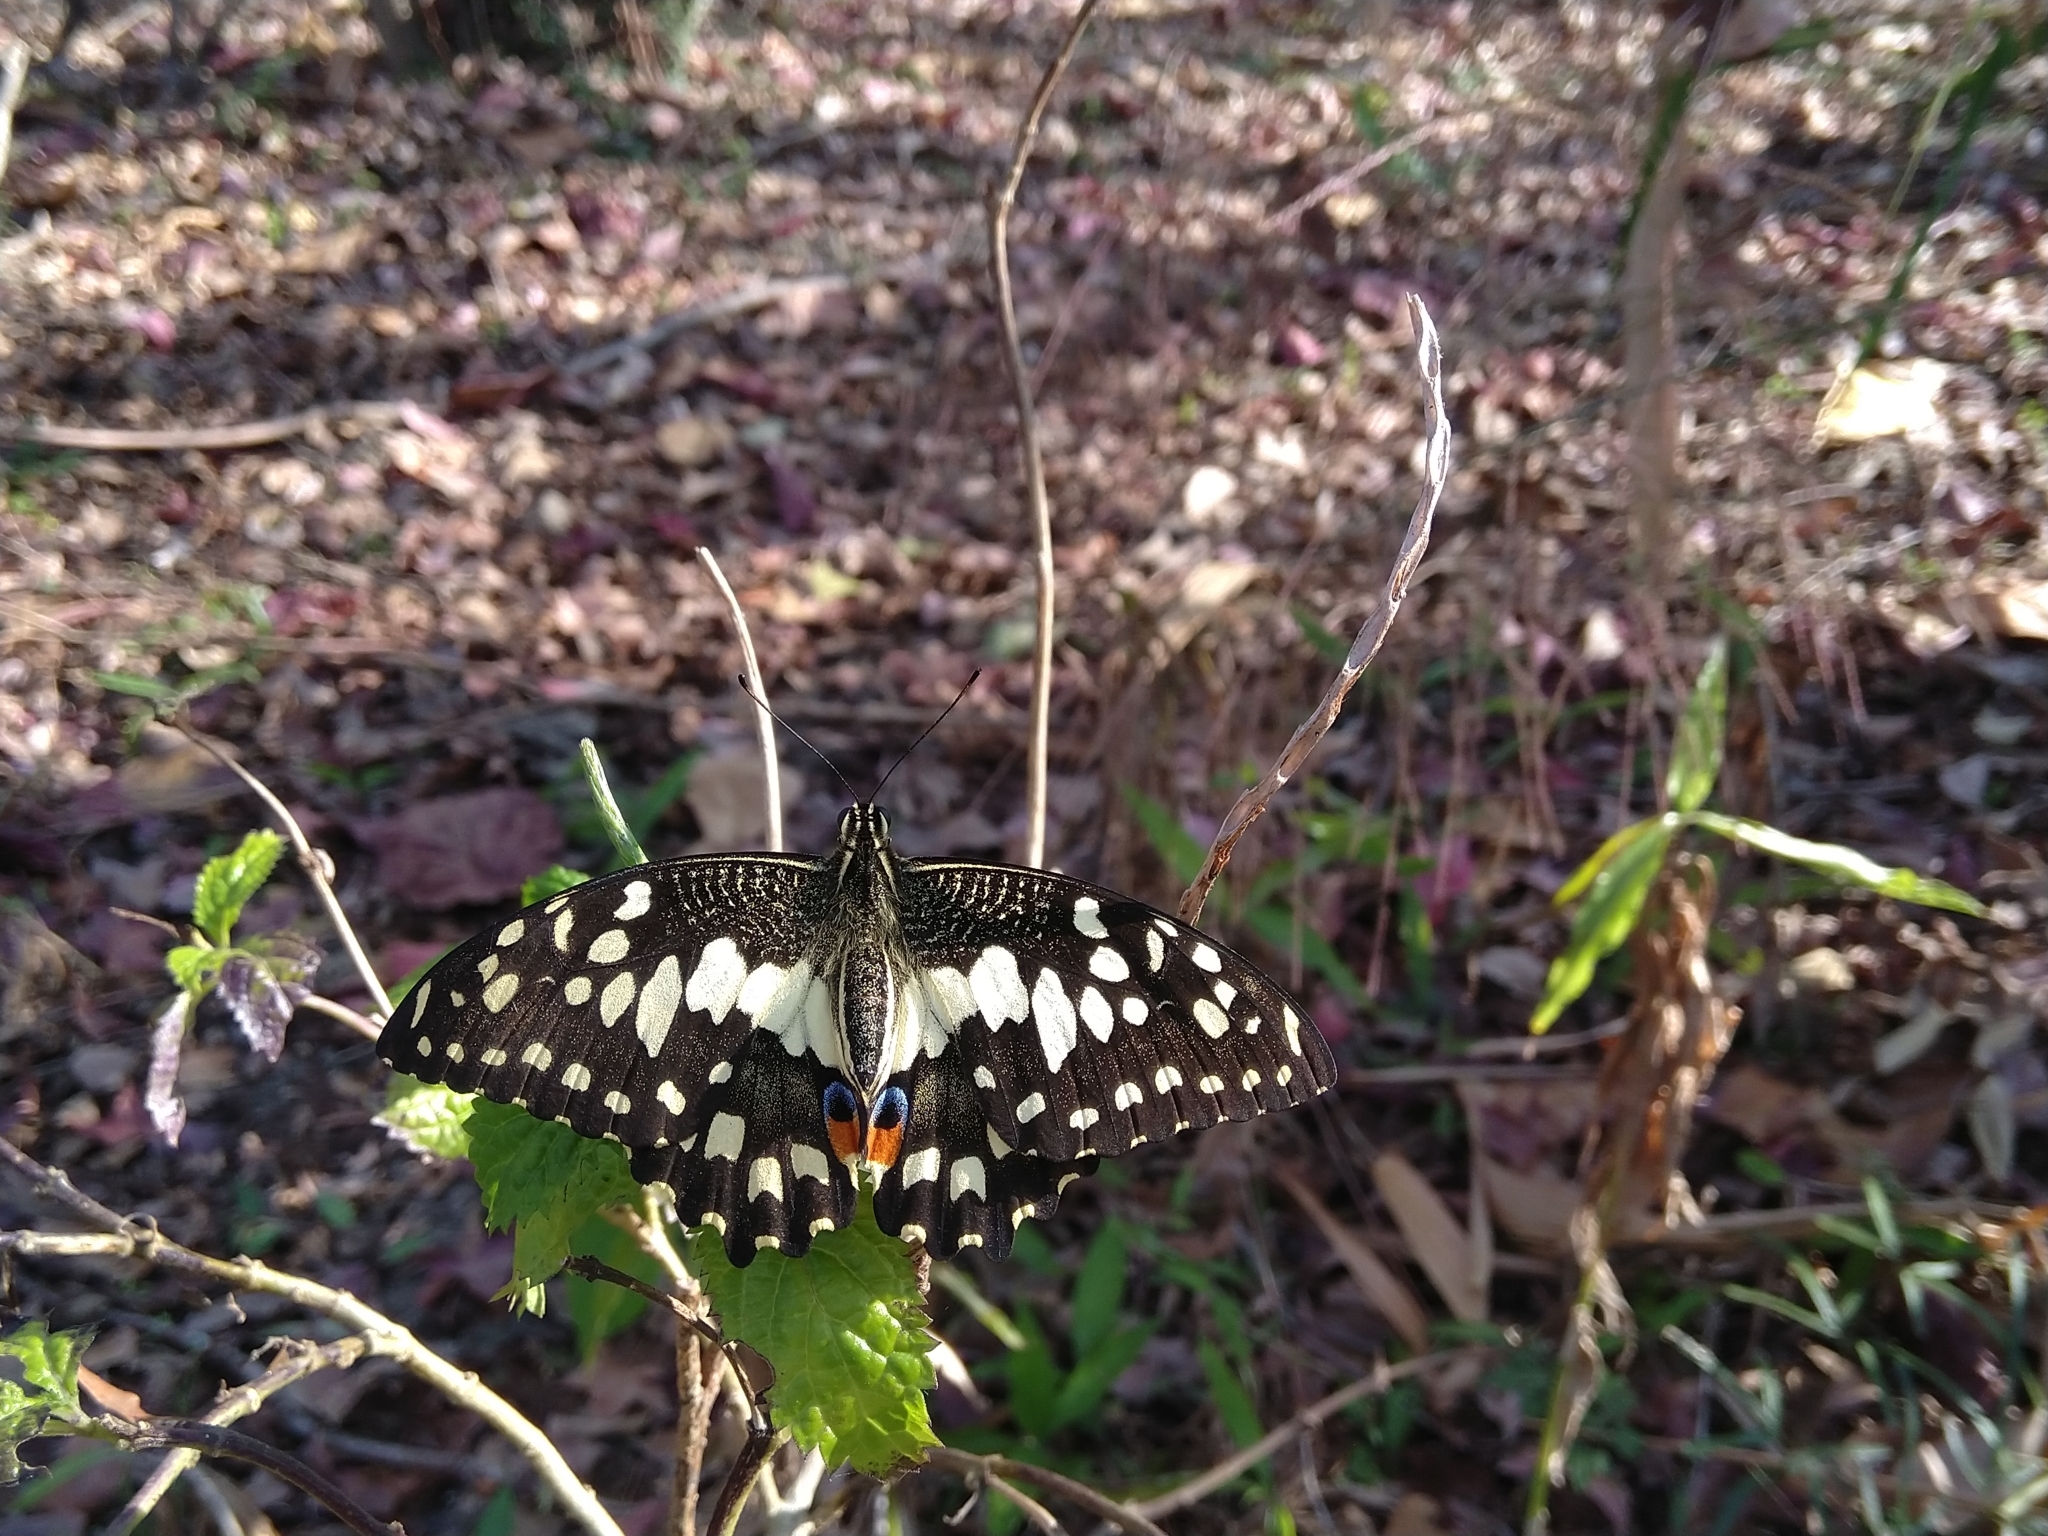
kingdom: Animalia
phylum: Arthropoda
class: Insecta
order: Lepidoptera
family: Papilionidae
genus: Papilio
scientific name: Papilio demoleus
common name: Lime butterfly
